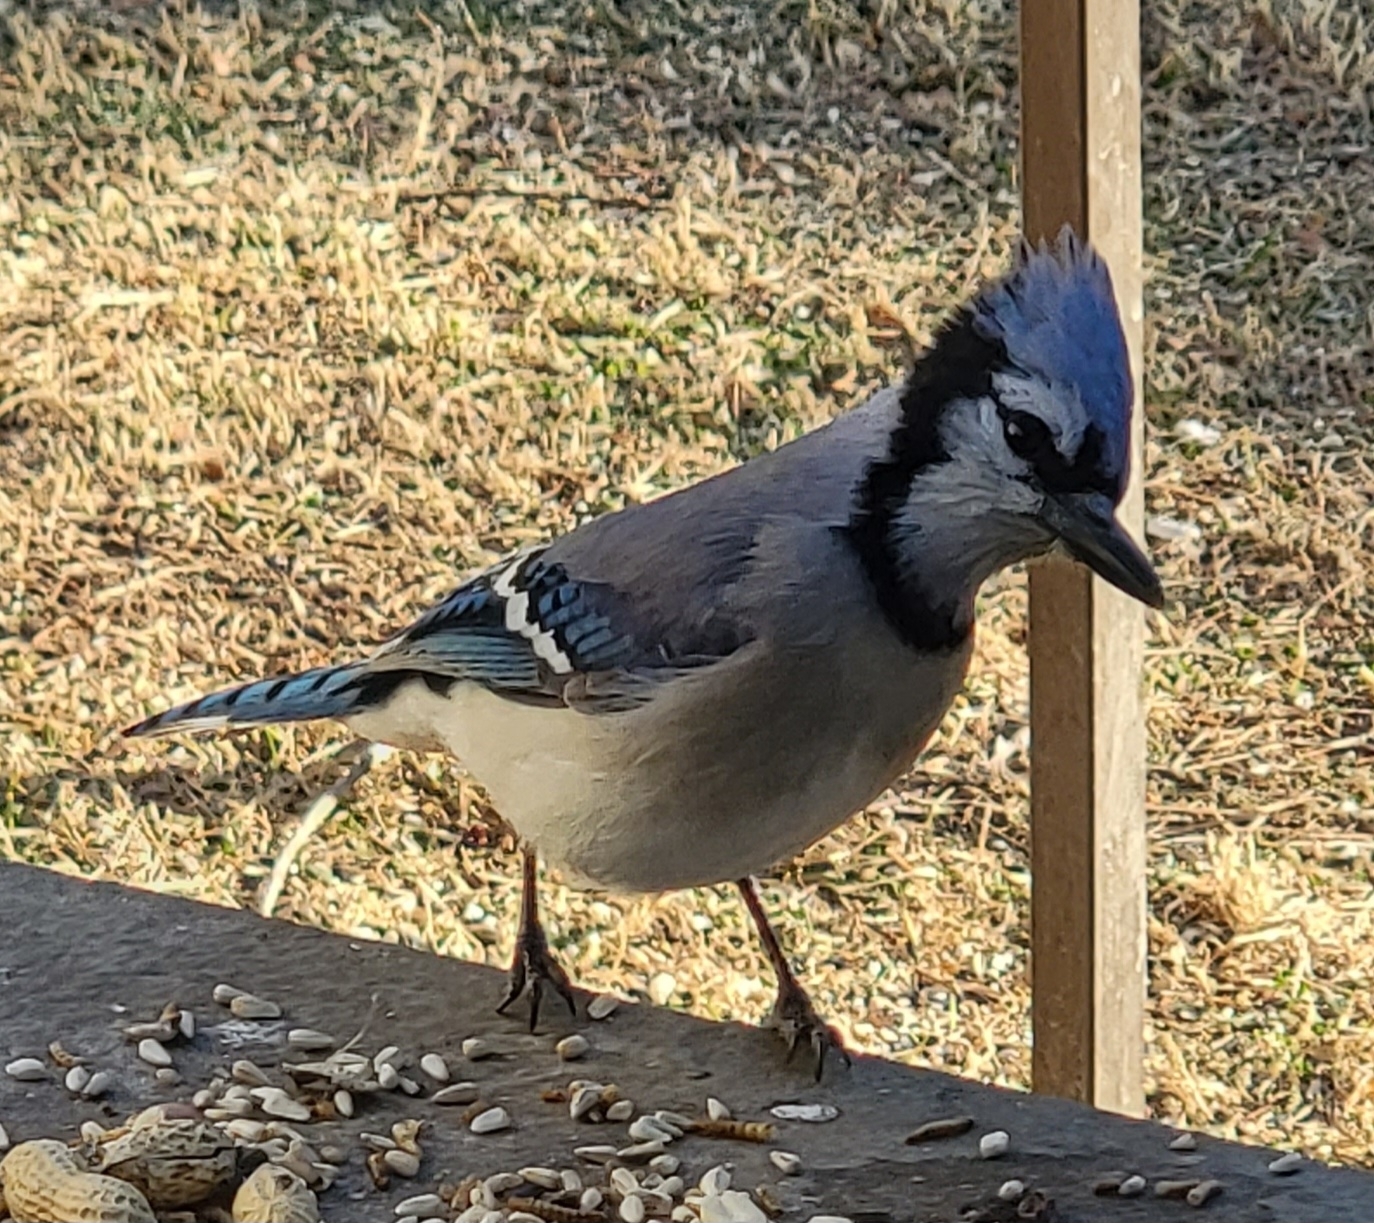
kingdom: Animalia
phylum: Chordata
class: Aves
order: Passeriformes
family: Corvidae
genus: Cyanocitta
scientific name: Cyanocitta cristata
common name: Blue jay
